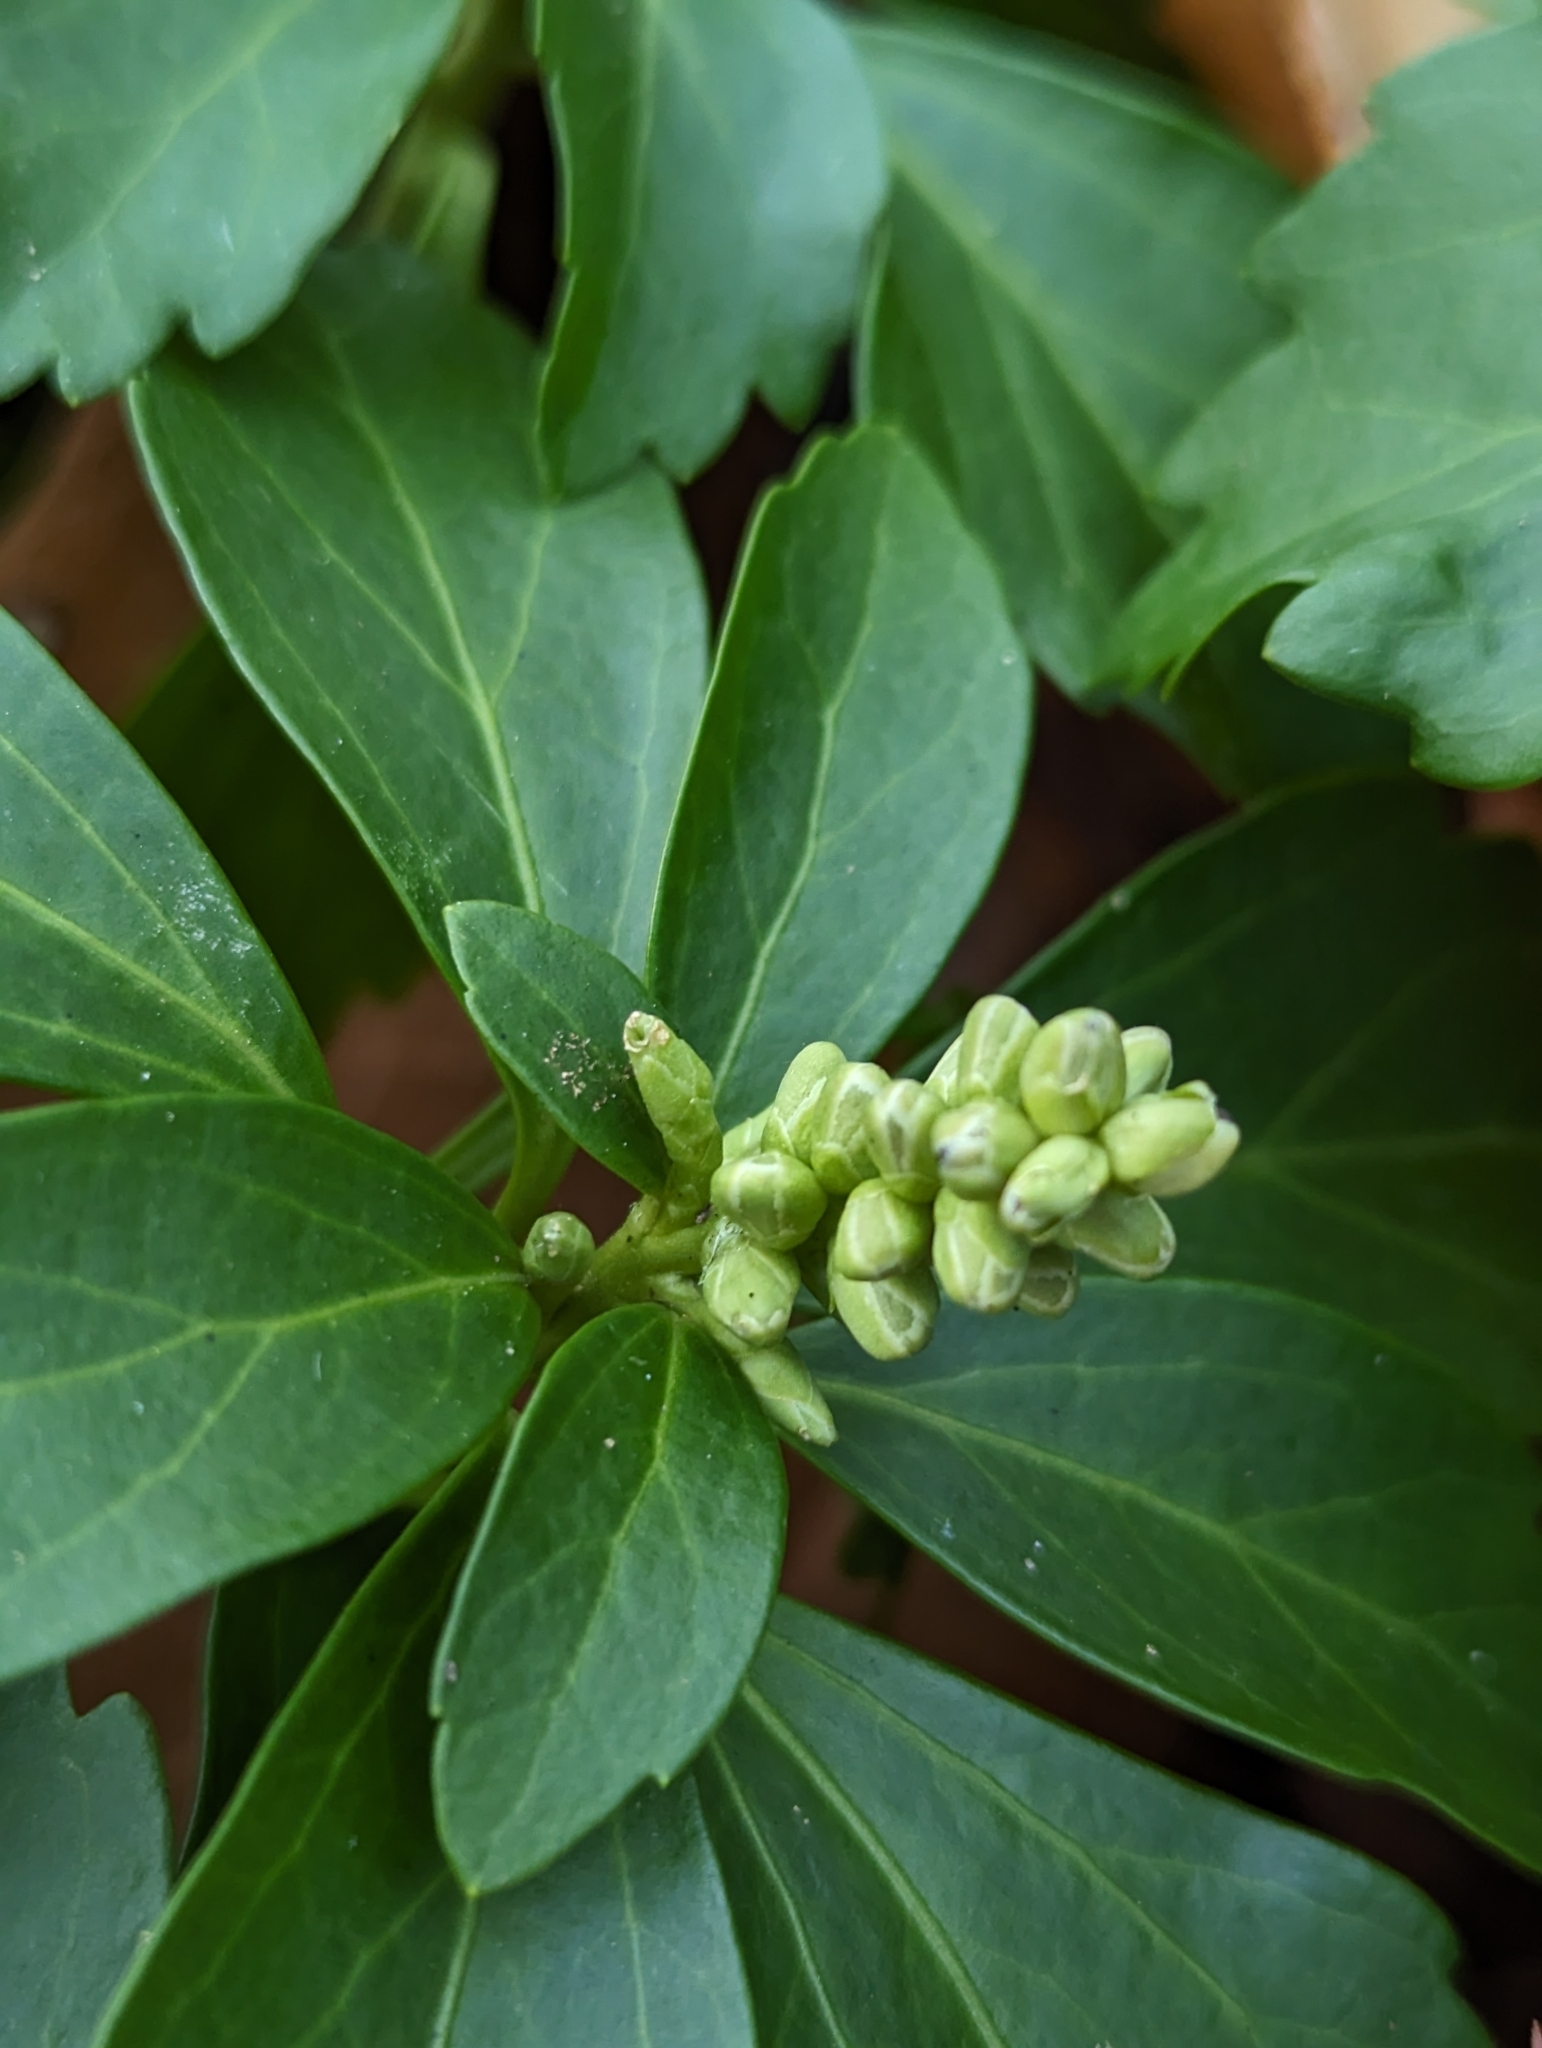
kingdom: Plantae
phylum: Tracheophyta
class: Magnoliopsida
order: Buxales
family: Buxaceae
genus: Pachysandra
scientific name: Pachysandra terminalis
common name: Japanese pachysandra
